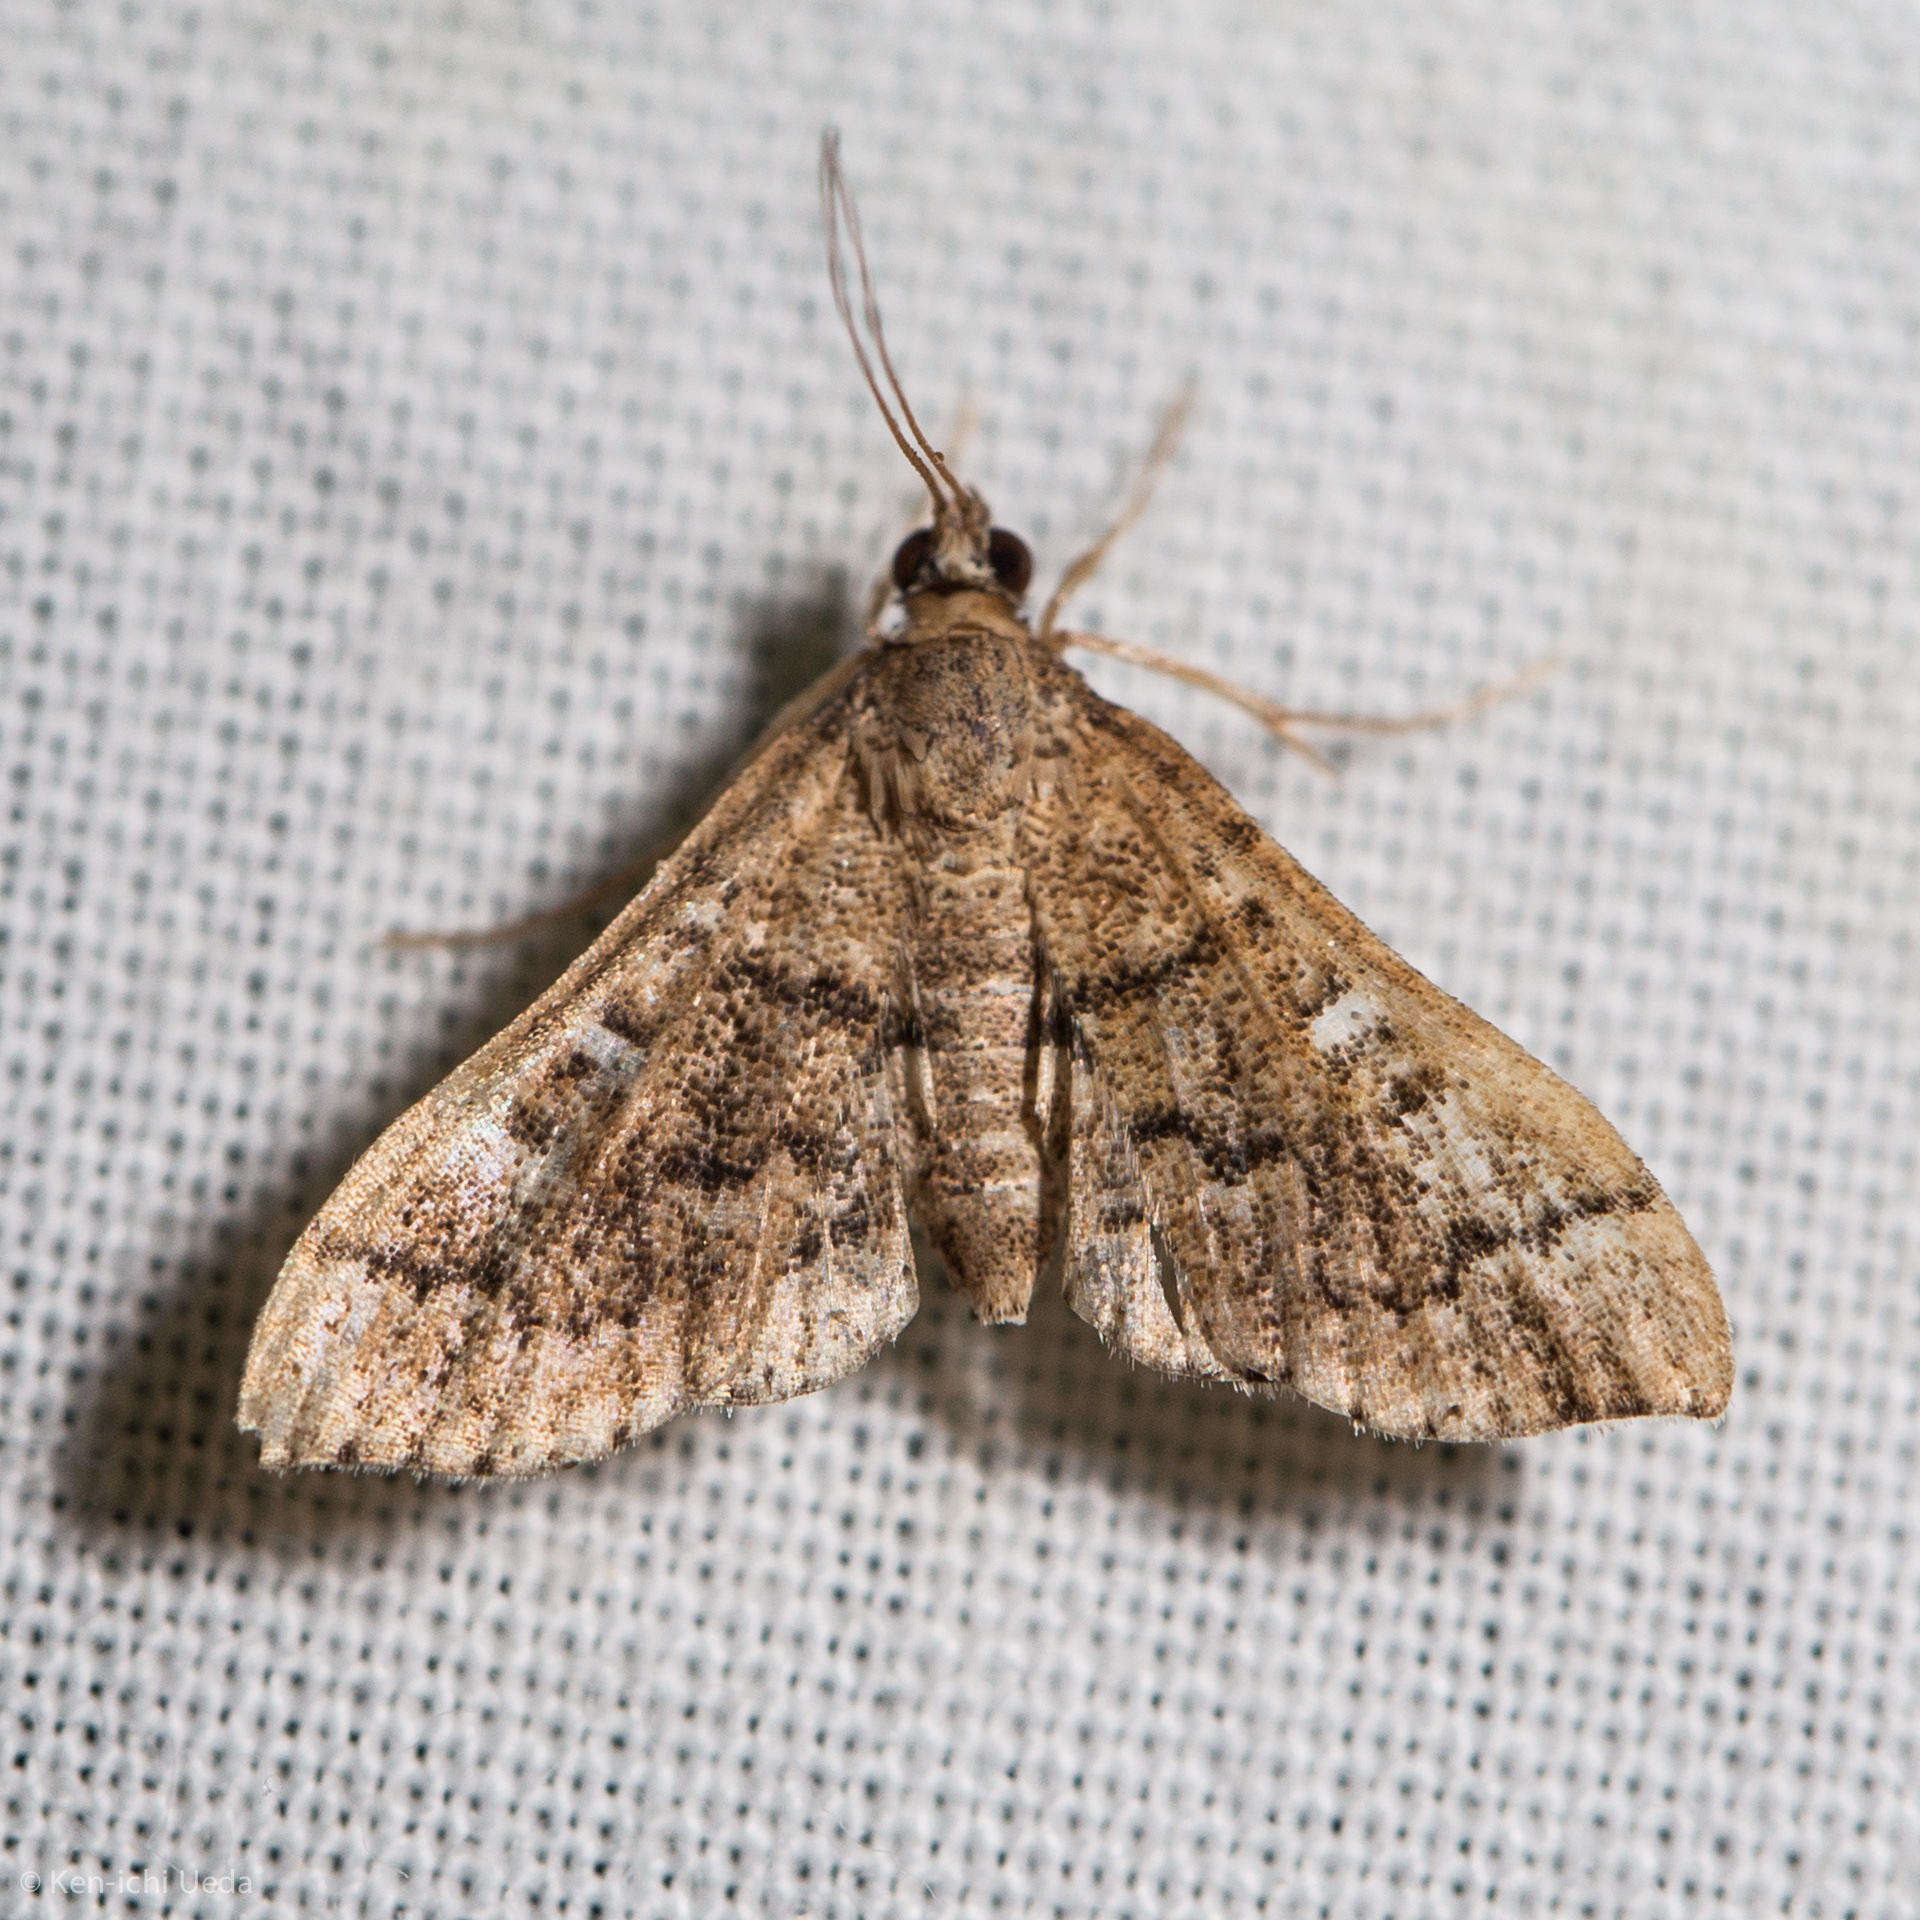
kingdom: Animalia
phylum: Arthropoda
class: Insecta
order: Lepidoptera
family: Crambidae
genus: Nacoleia
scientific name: Nacoleia rhoeoalis
